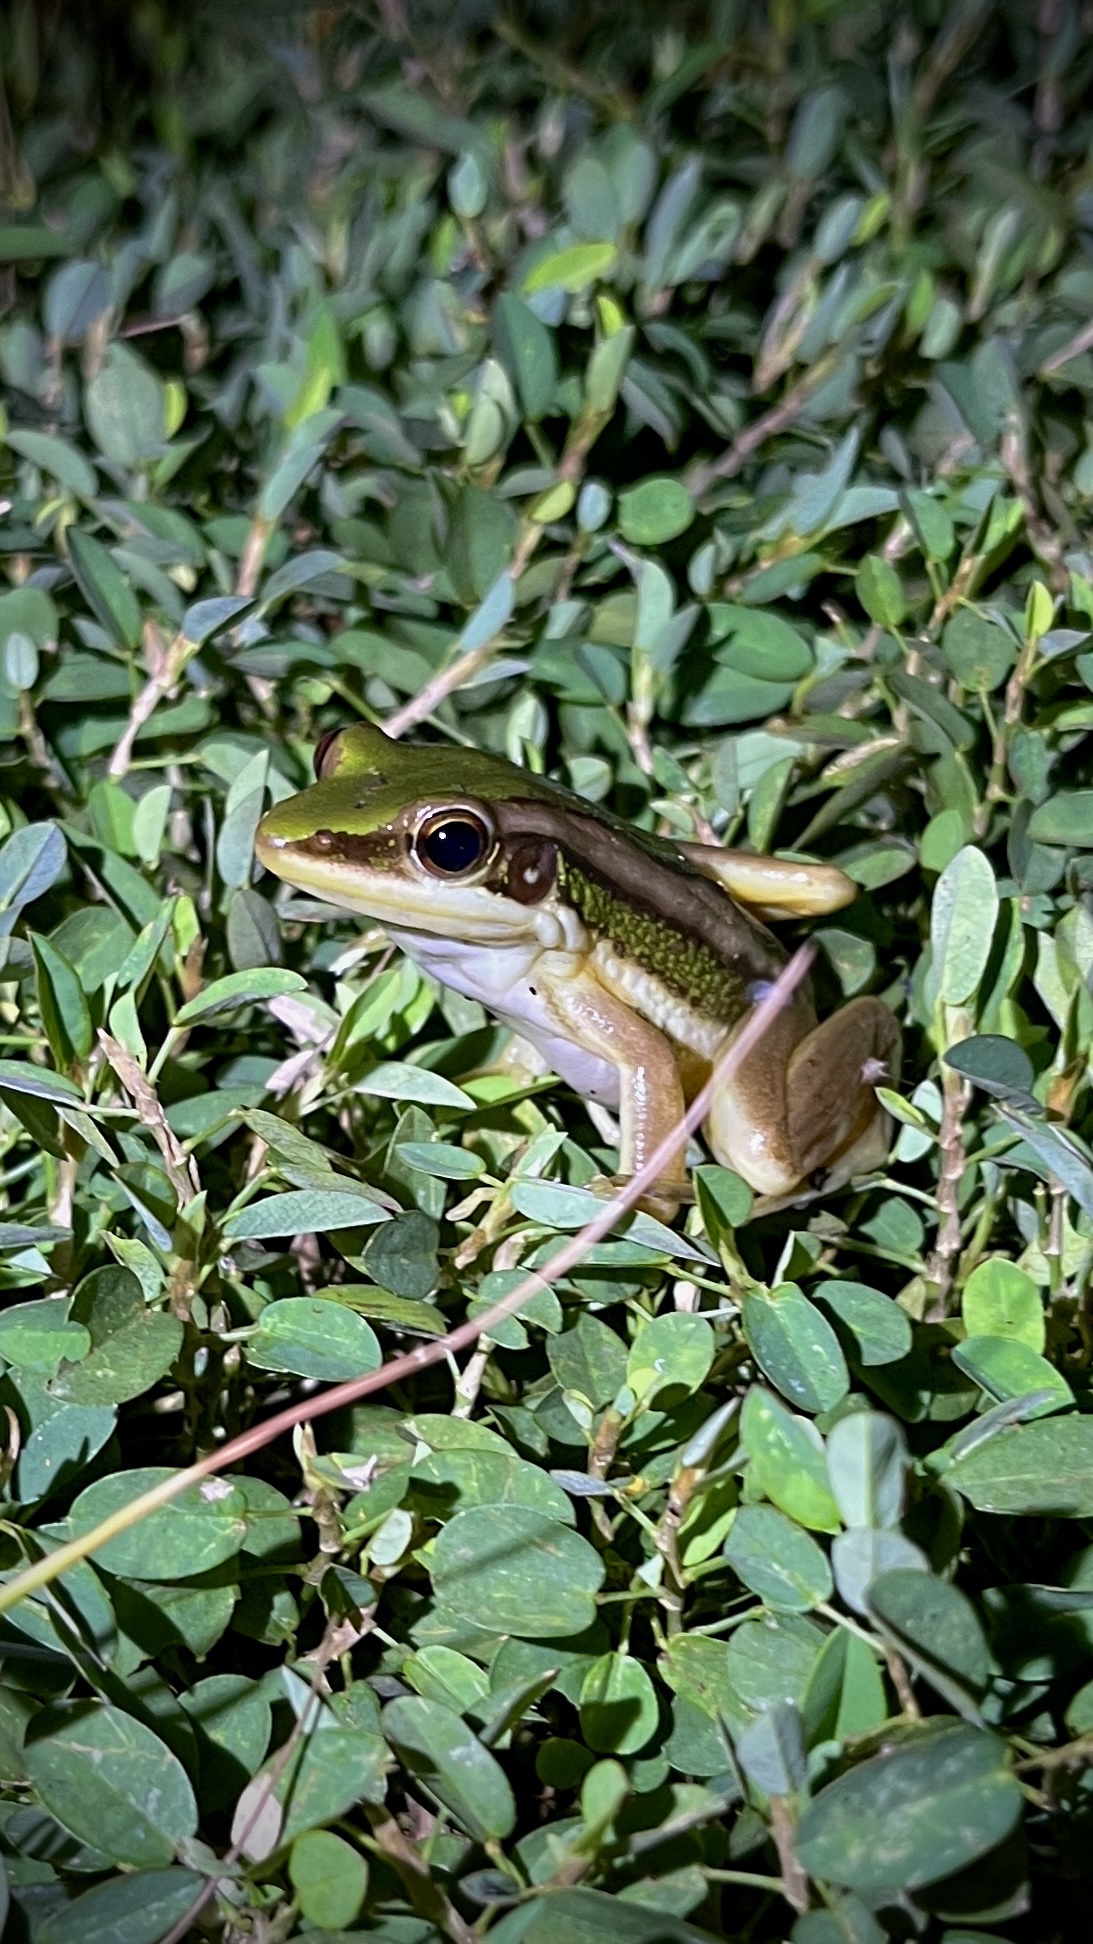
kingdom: Animalia
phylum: Chordata
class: Amphibia
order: Anura
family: Ranidae
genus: Hylarana
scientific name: Hylarana erythraea
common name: Common green frog/green paddy frog/leaf frog
